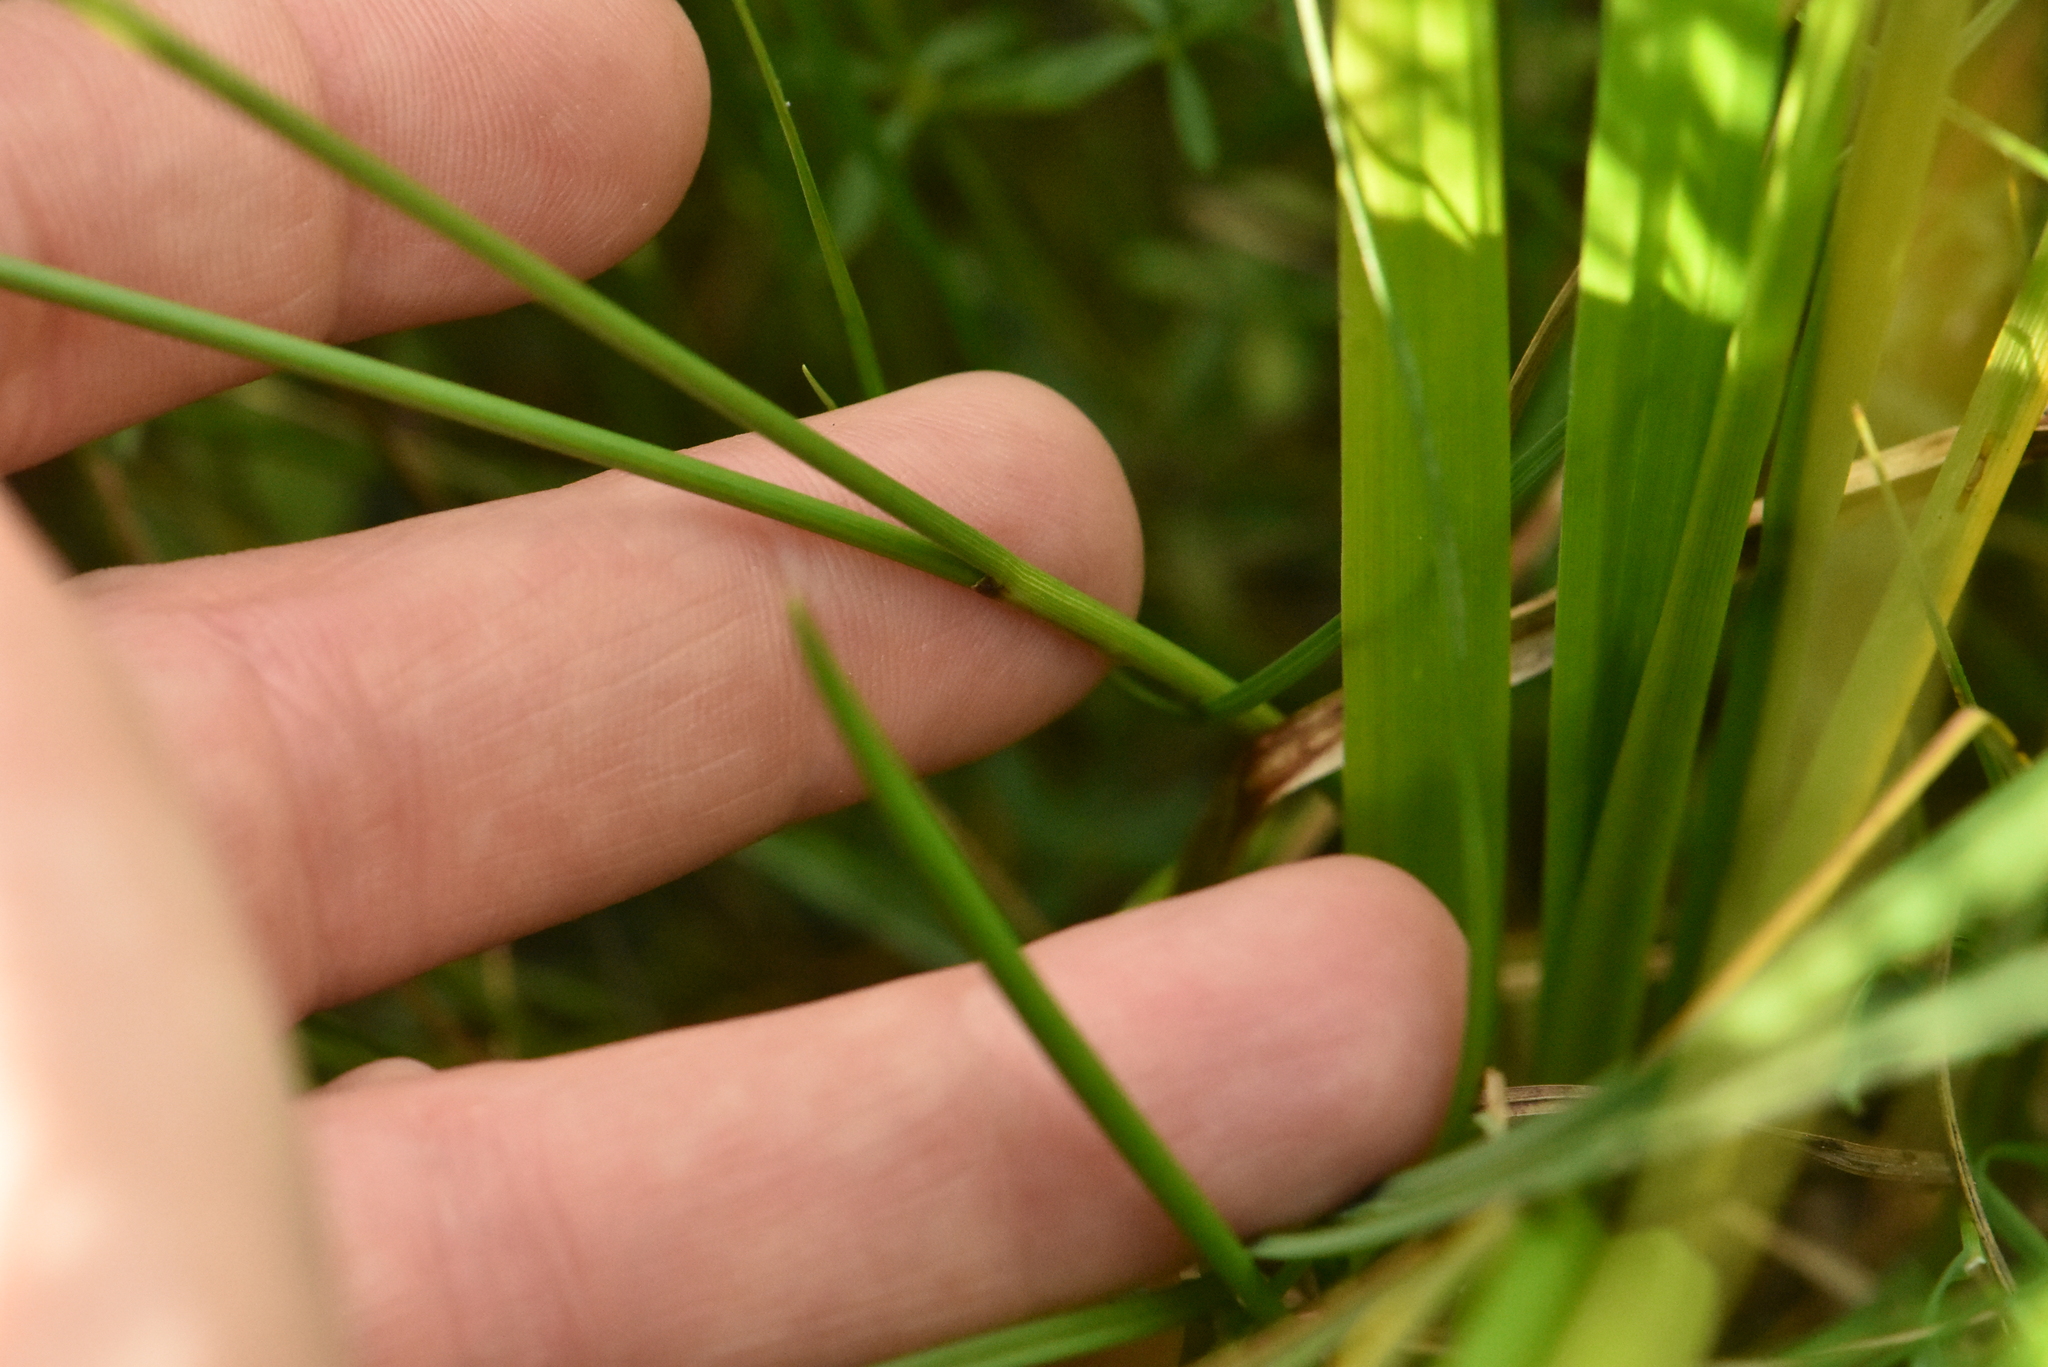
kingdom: Plantae
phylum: Tracheophyta
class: Liliopsida
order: Poales
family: Cyperaceae
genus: Carex
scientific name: Carex lasiocarpa
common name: Slender sedge
